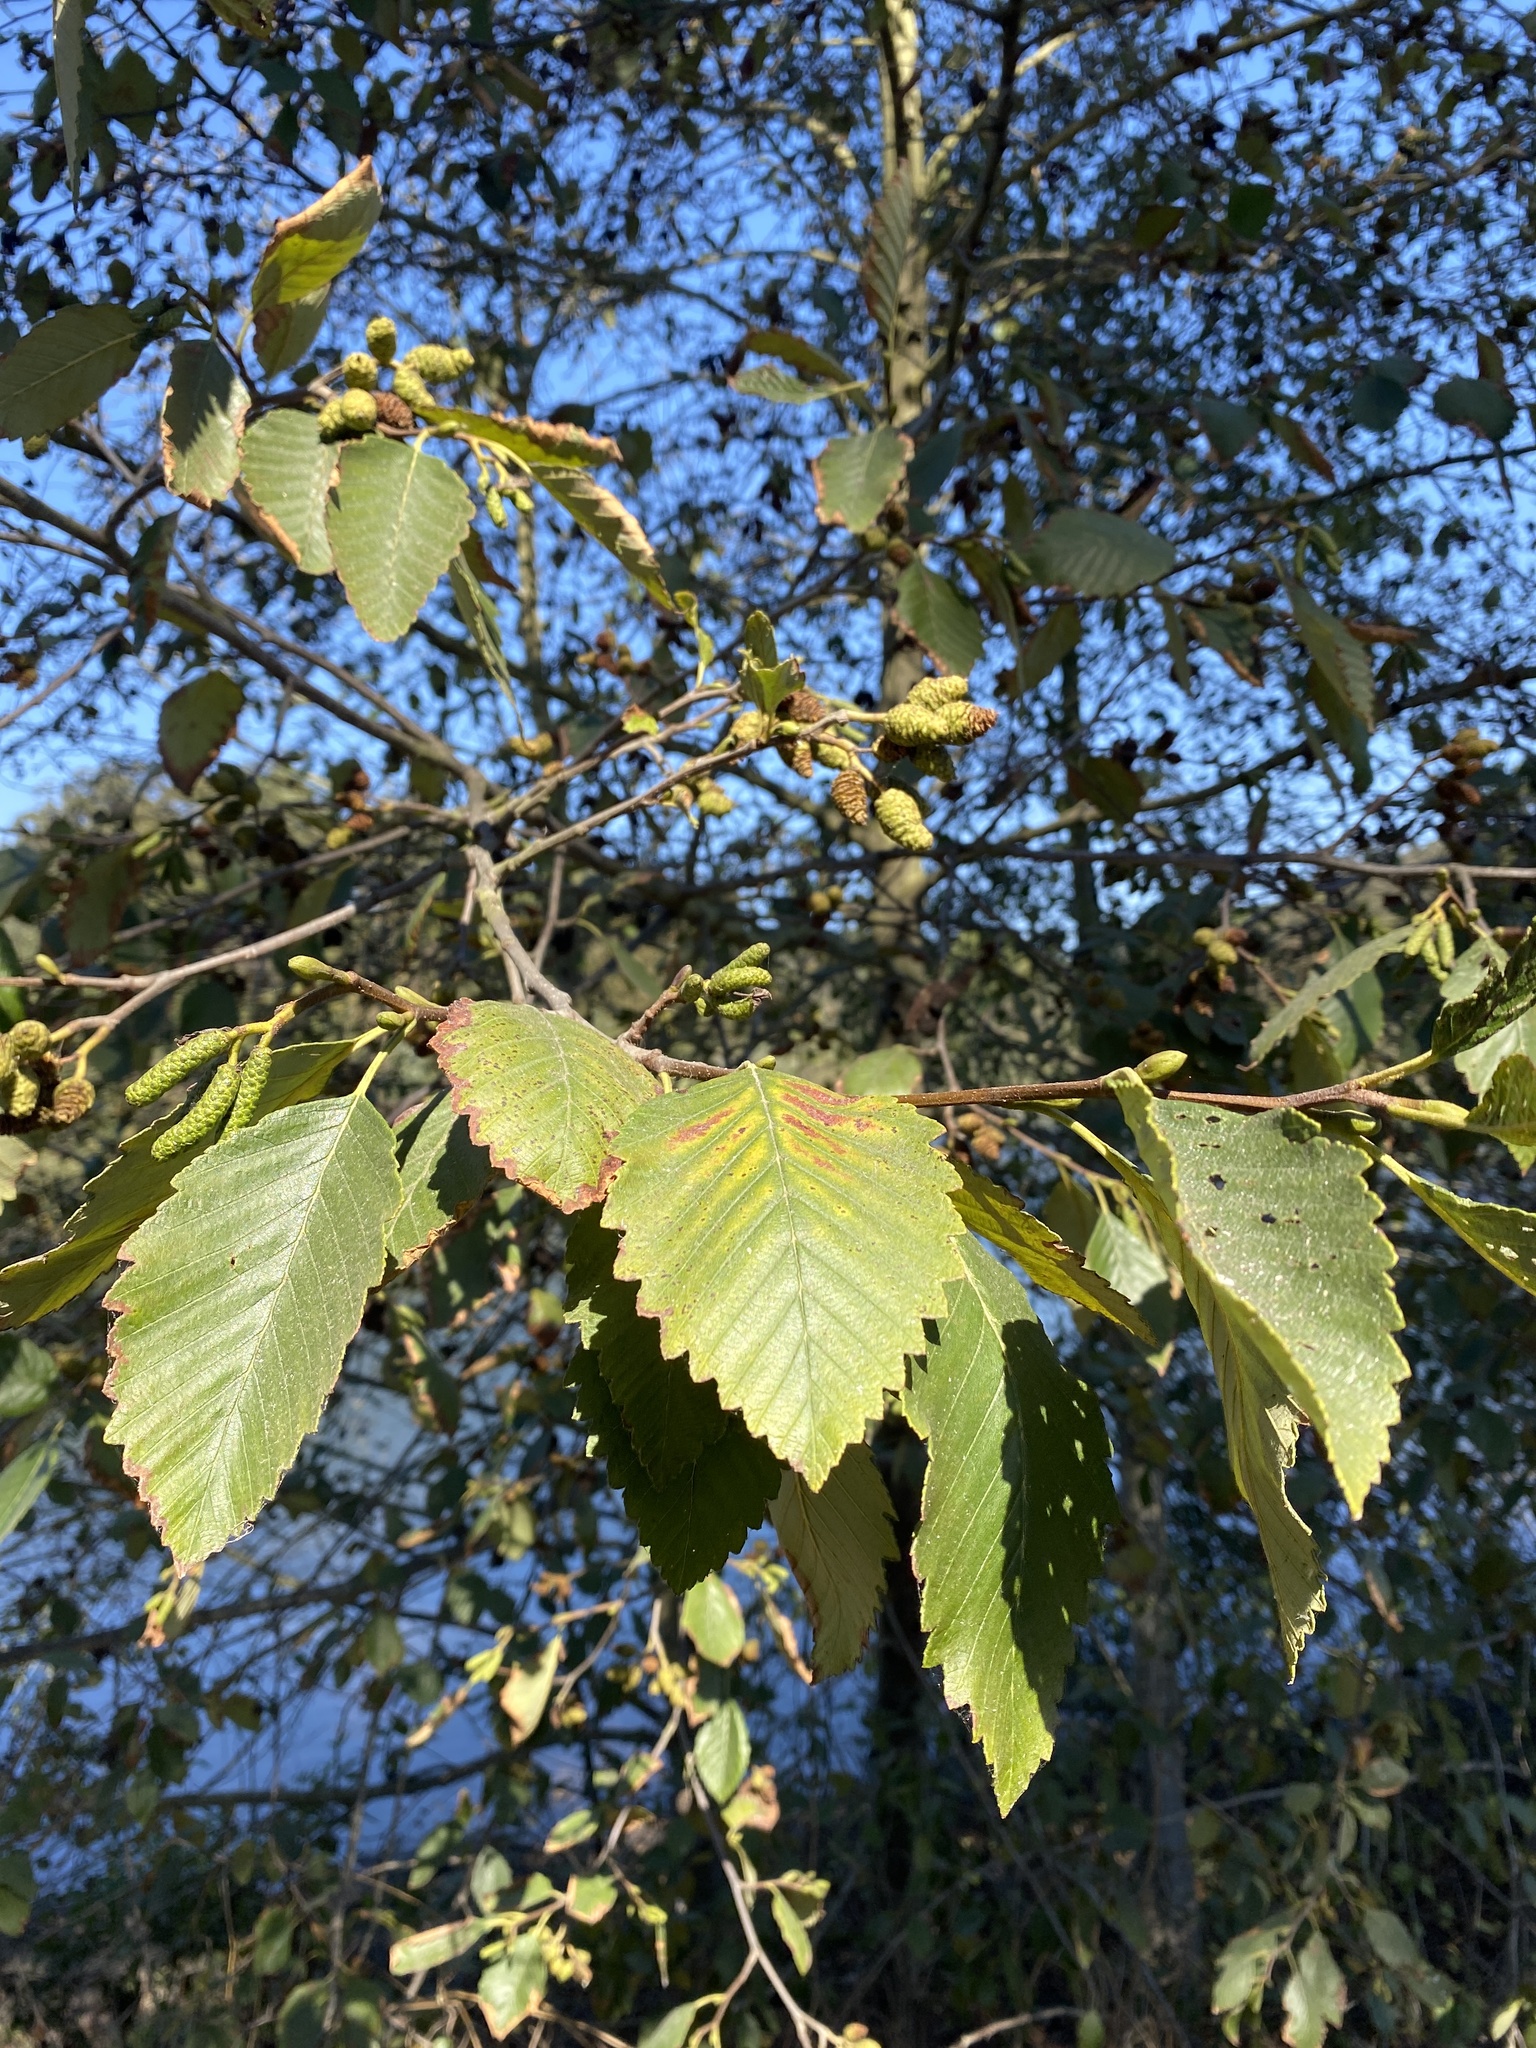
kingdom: Plantae
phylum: Tracheophyta
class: Magnoliopsida
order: Fagales
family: Betulaceae
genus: Alnus
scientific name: Alnus rubra
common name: Red alder
